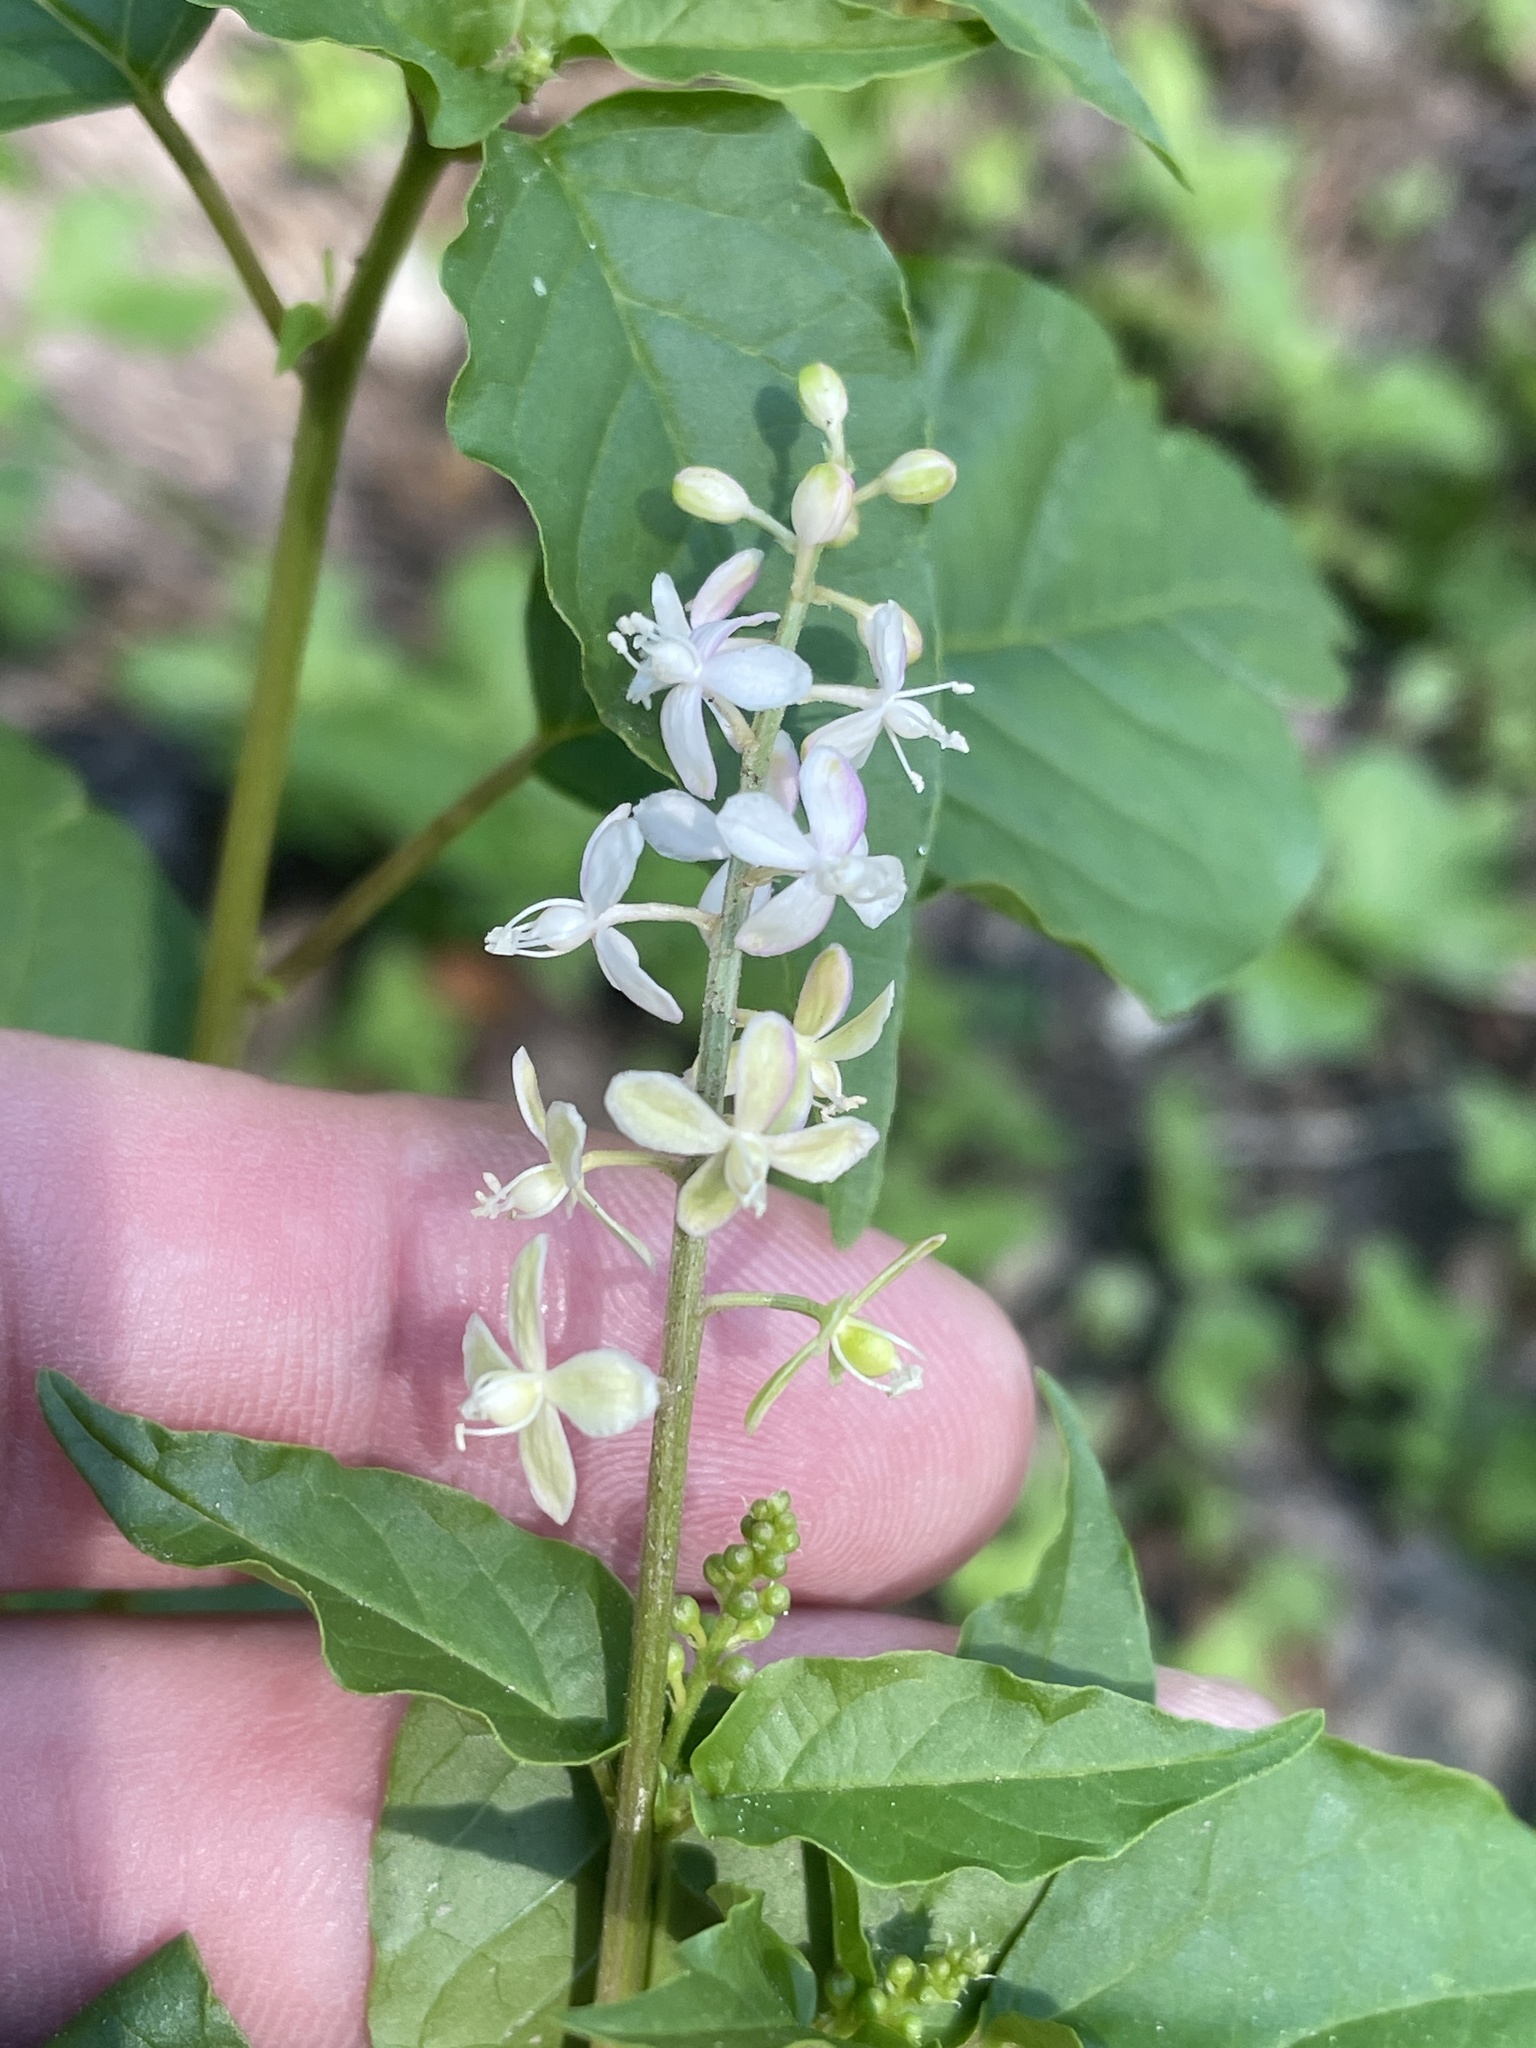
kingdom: Plantae
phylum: Tracheophyta
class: Magnoliopsida
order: Caryophyllales
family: Phytolaccaceae
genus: Rivina
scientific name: Rivina humilis
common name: Rougeplant
